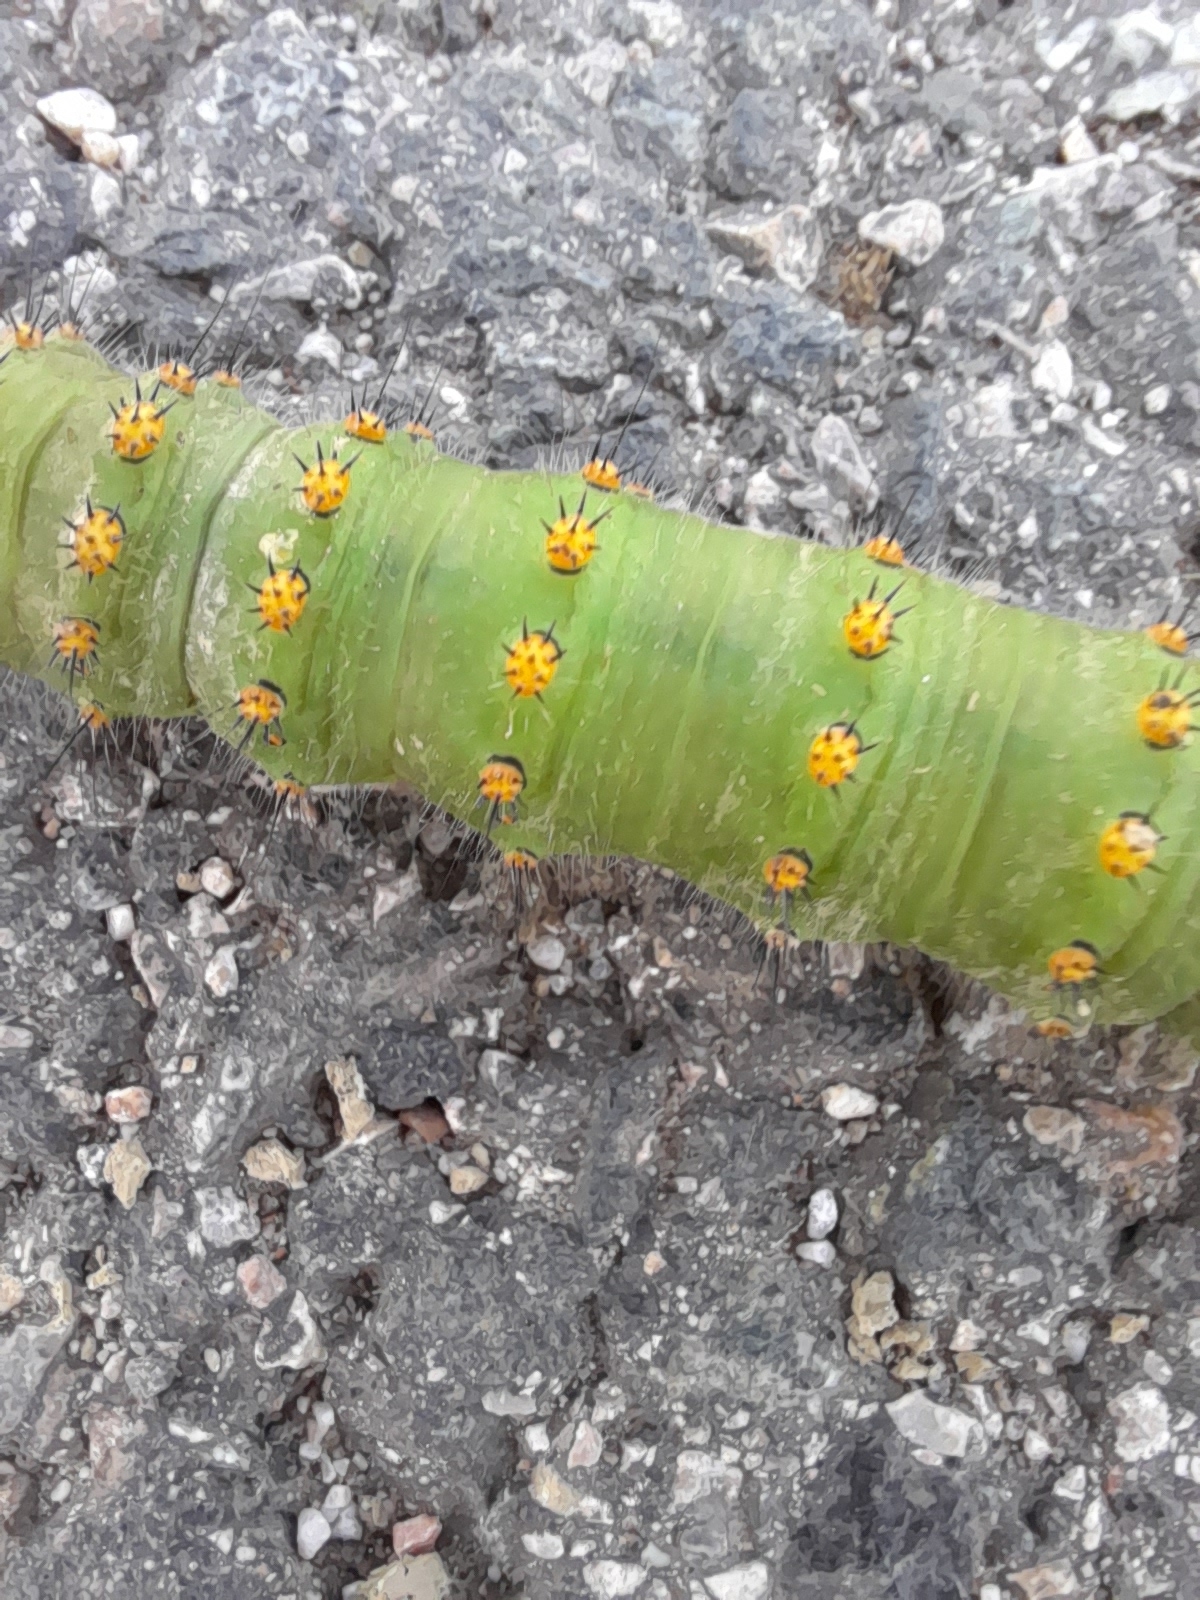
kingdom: Animalia
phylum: Arthropoda
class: Insecta
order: Lepidoptera
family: Saturniidae
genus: Saturnia
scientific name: Saturnia pavoniella
